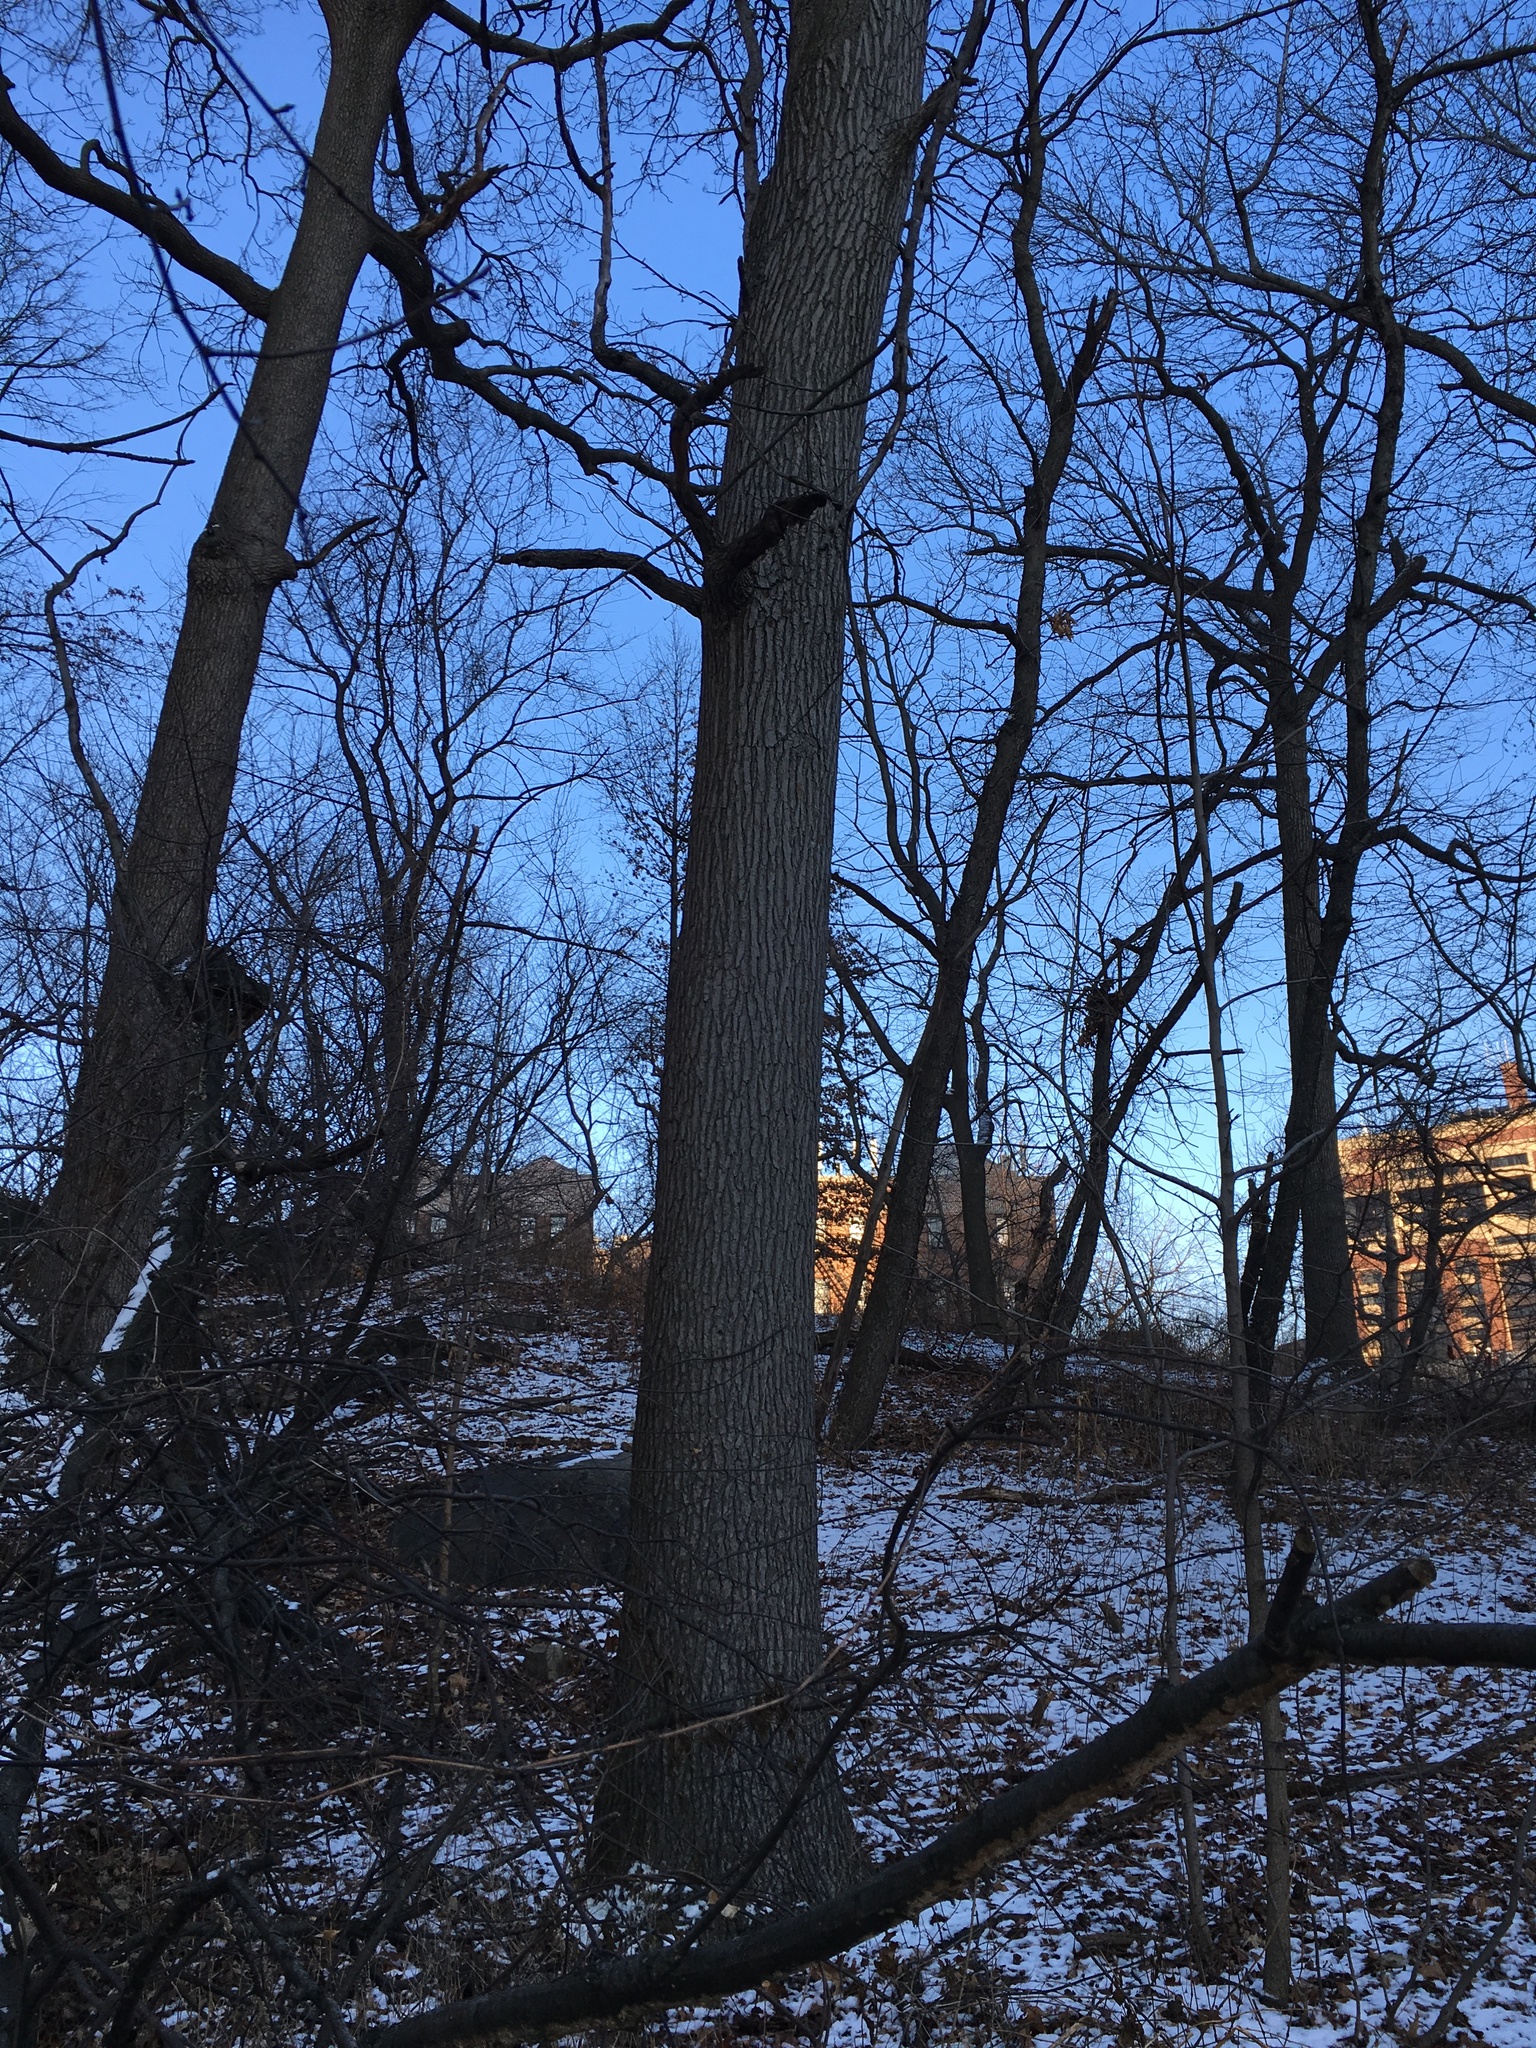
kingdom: Plantae
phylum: Tracheophyta
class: Magnoliopsida
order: Saxifragales
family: Altingiaceae
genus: Liquidambar
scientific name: Liquidambar styraciflua
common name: Sweet gum
